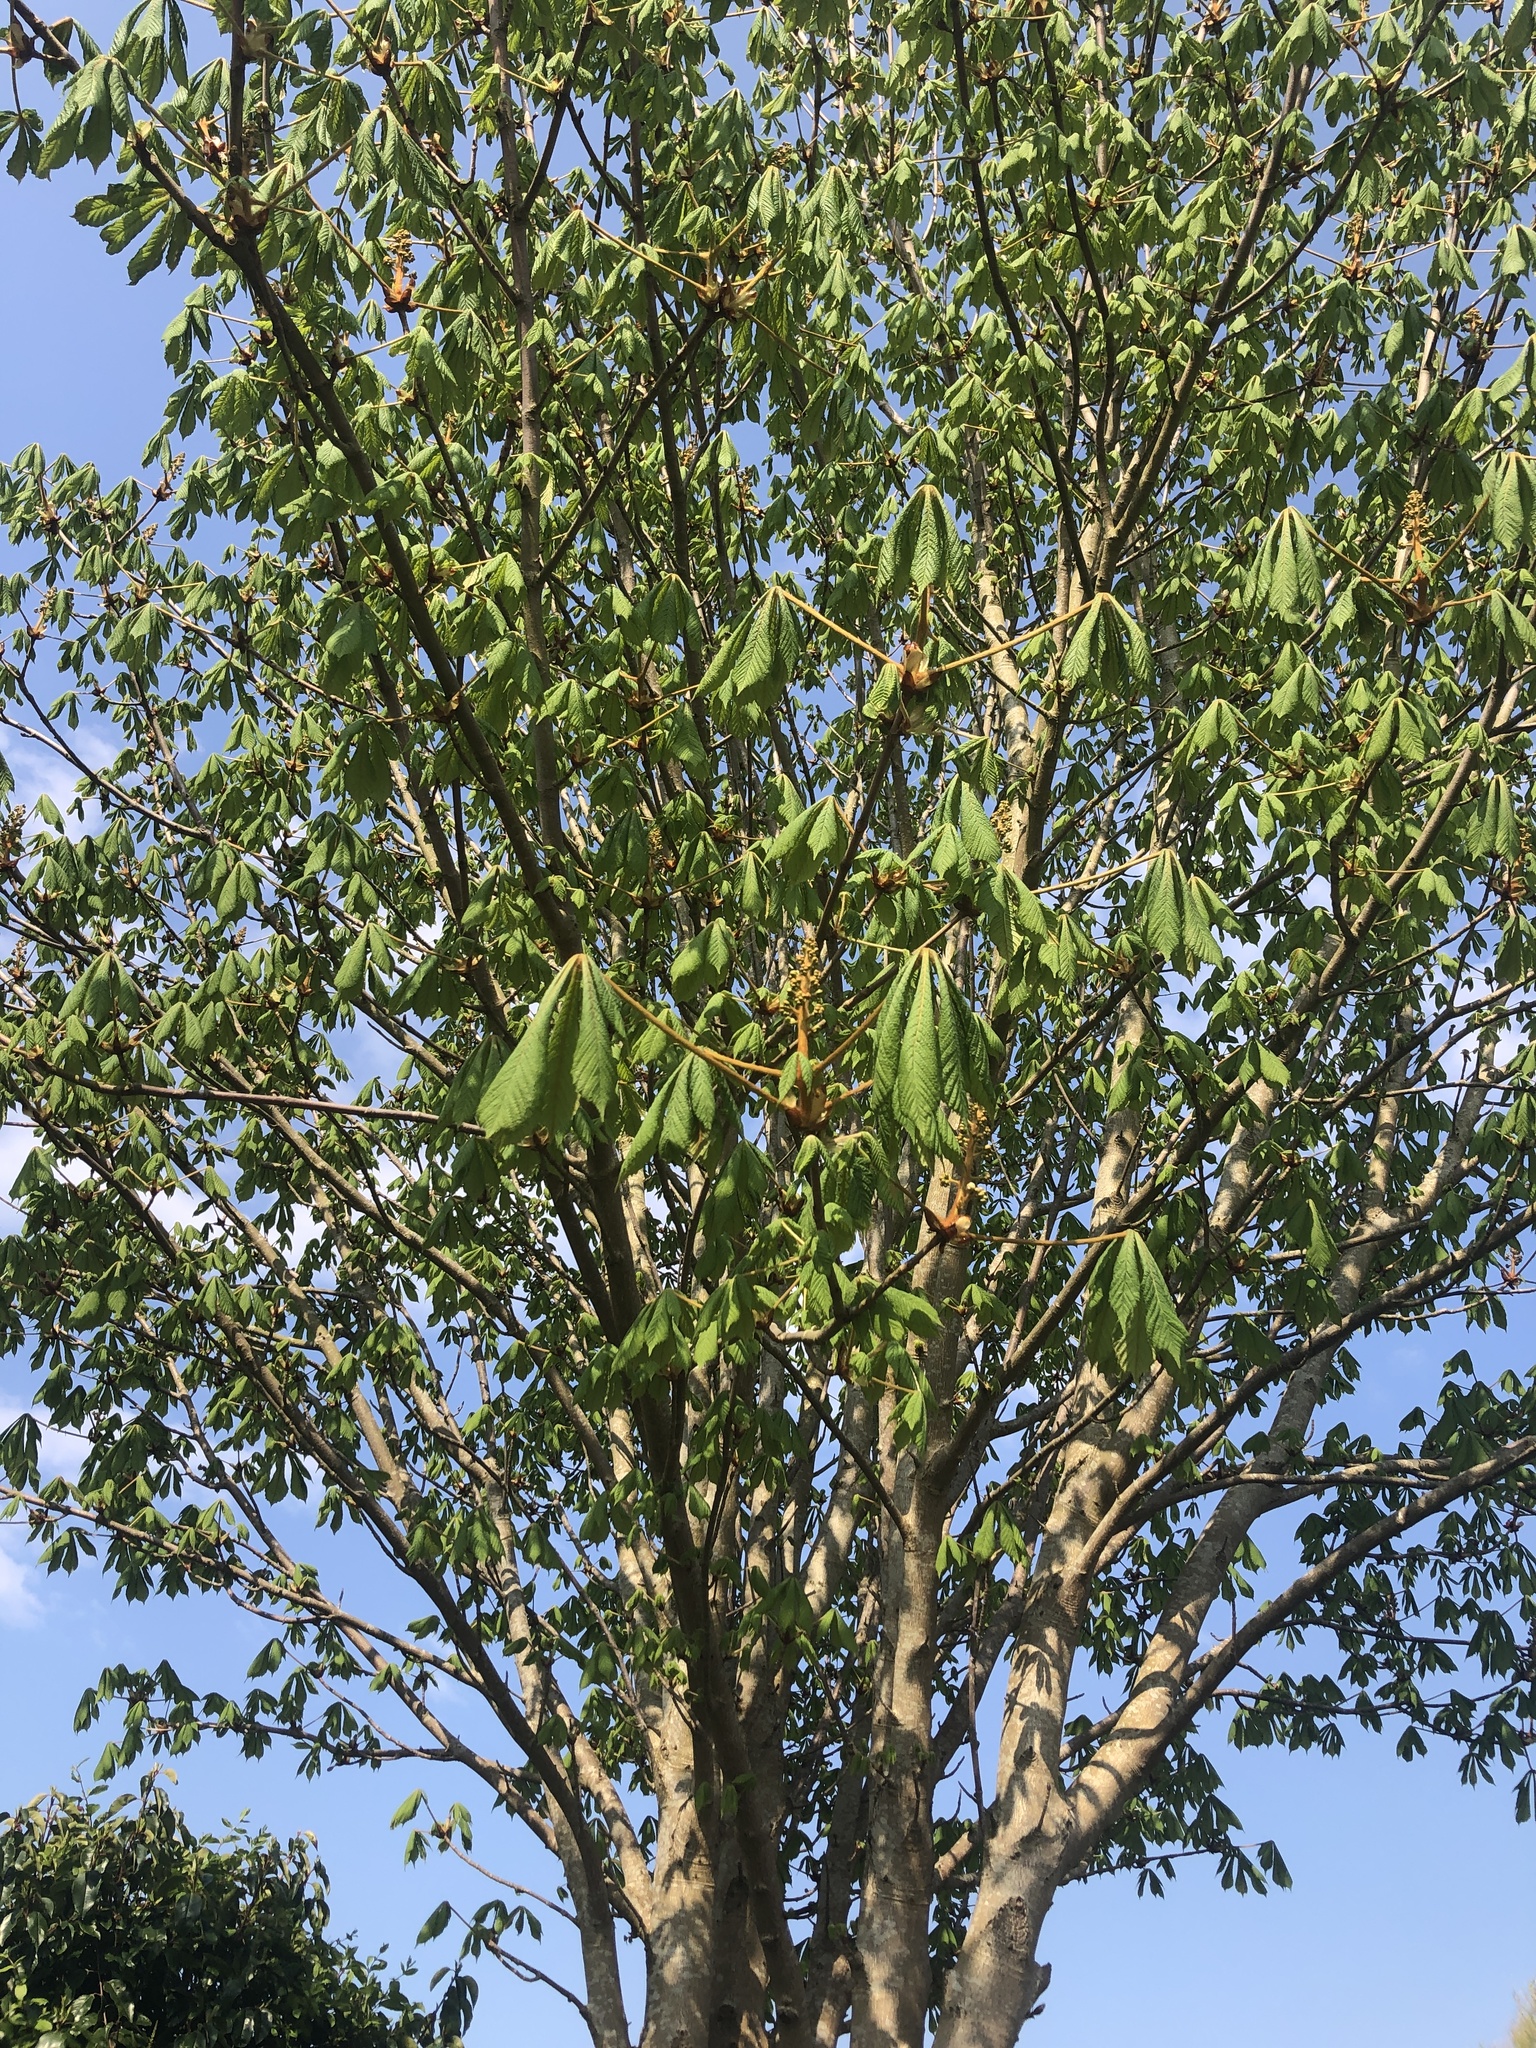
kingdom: Plantae
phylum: Tracheophyta
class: Magnoliopsida
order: Sapindales
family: Sapindaceae
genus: Aesculus
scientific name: Aesculus hippocastanum
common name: Horse-chestnut
